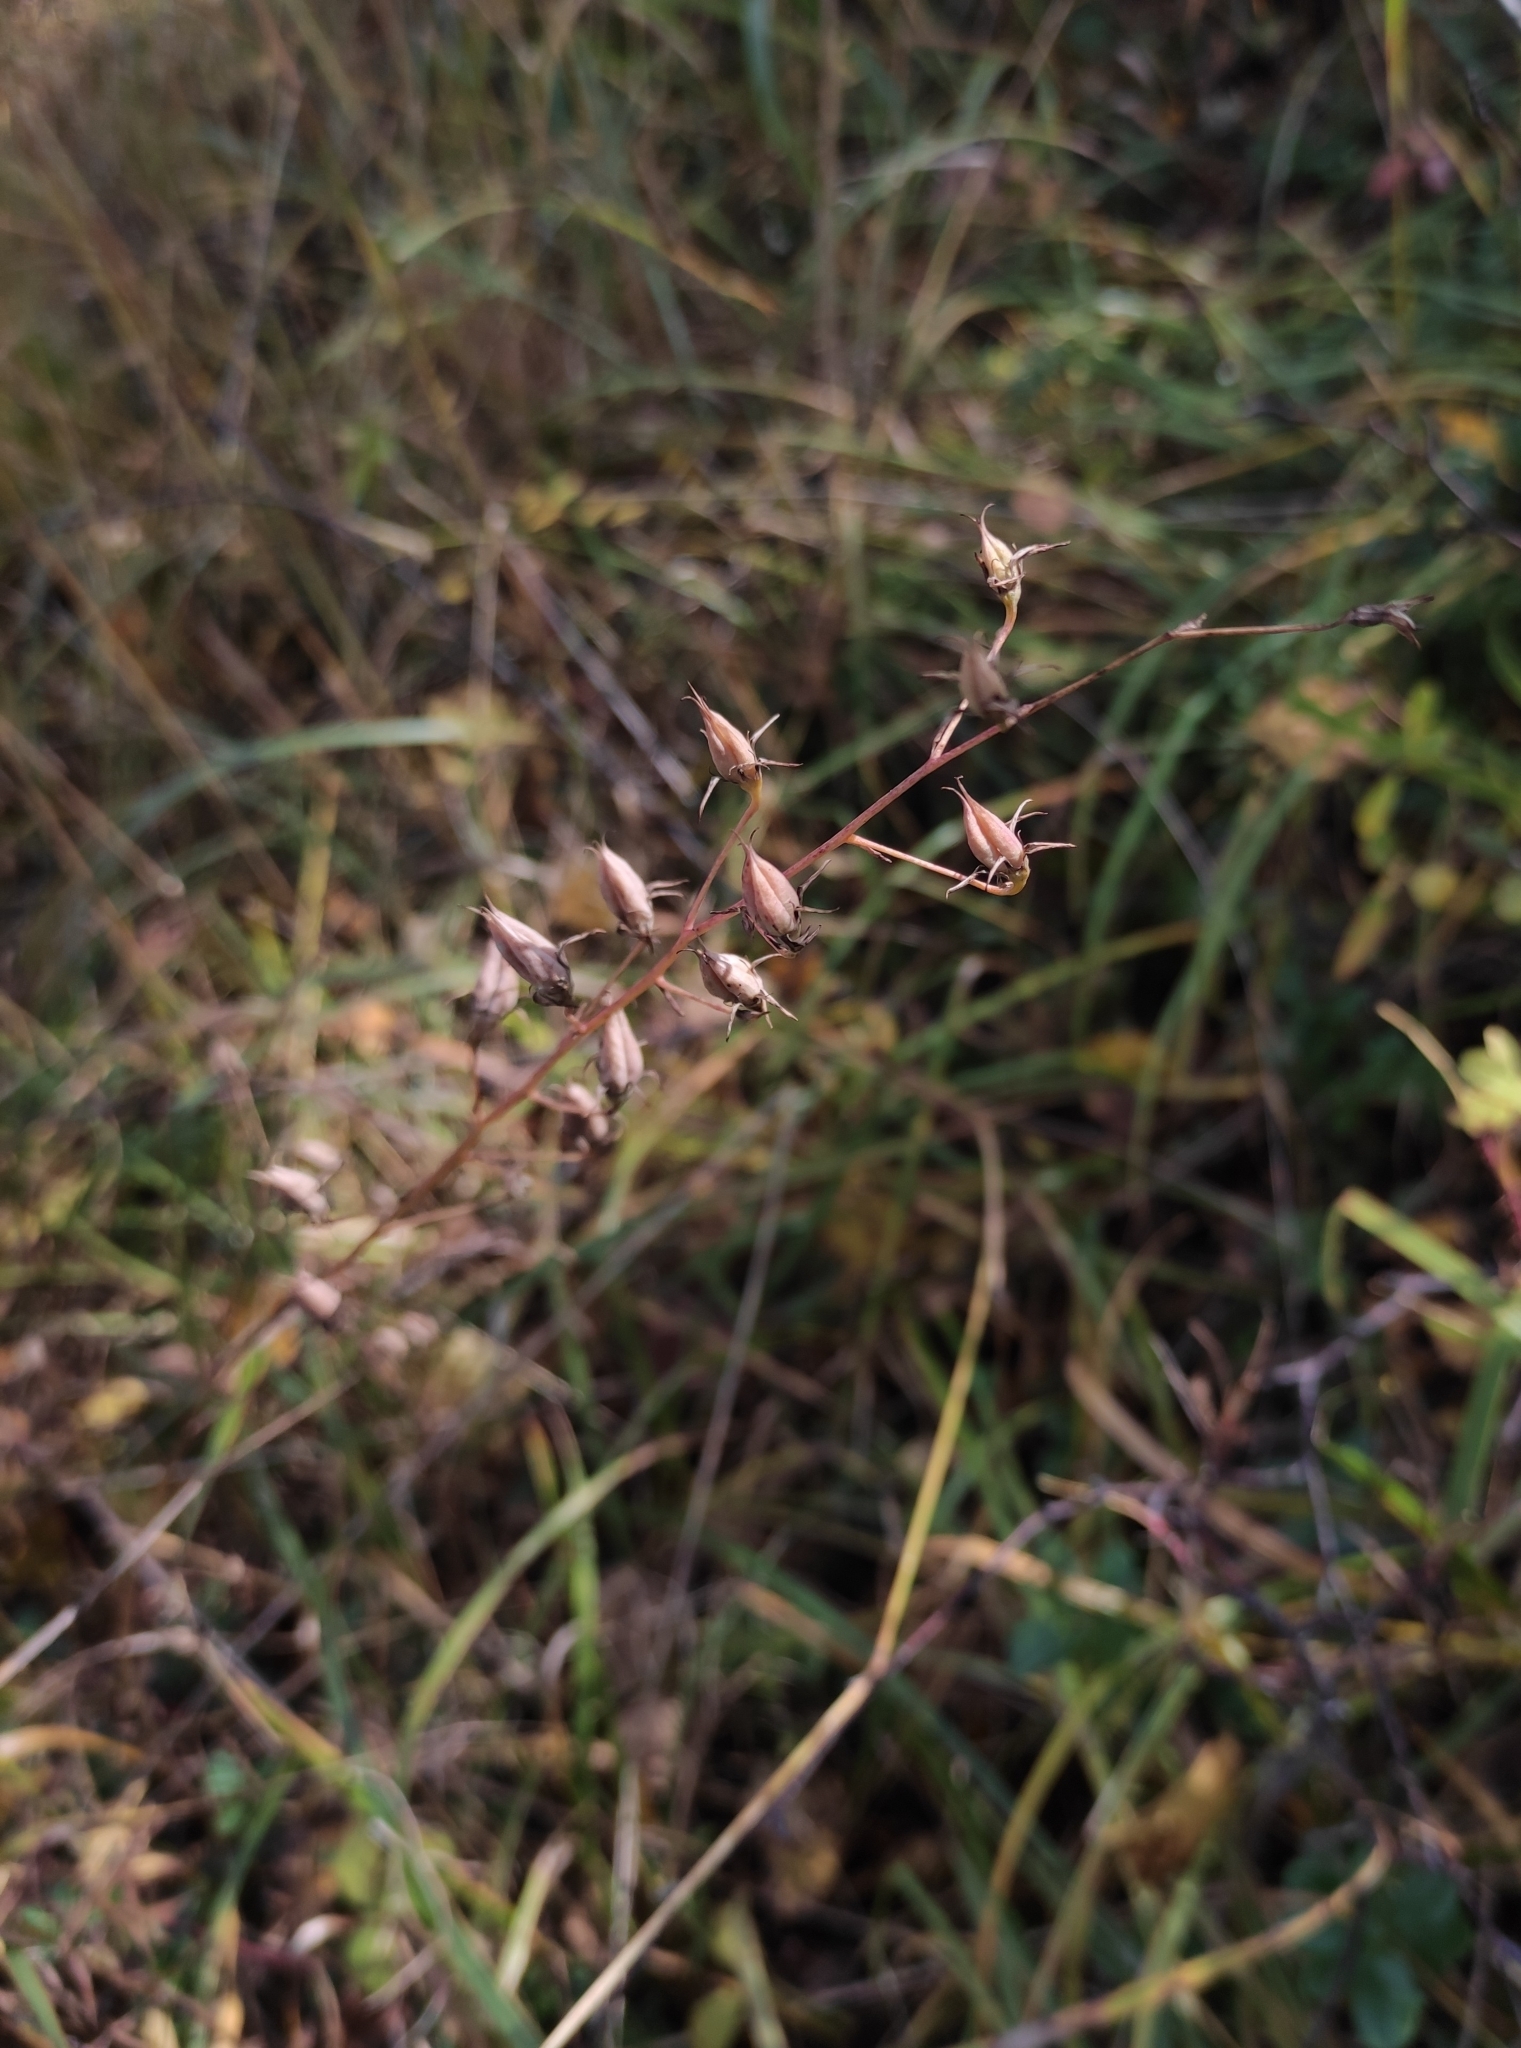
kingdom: Plantae
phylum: Tracheophyta
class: Liliopsida
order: Liliales
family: Melanthiaceae
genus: Anticlea
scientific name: Anticlea sibirica
